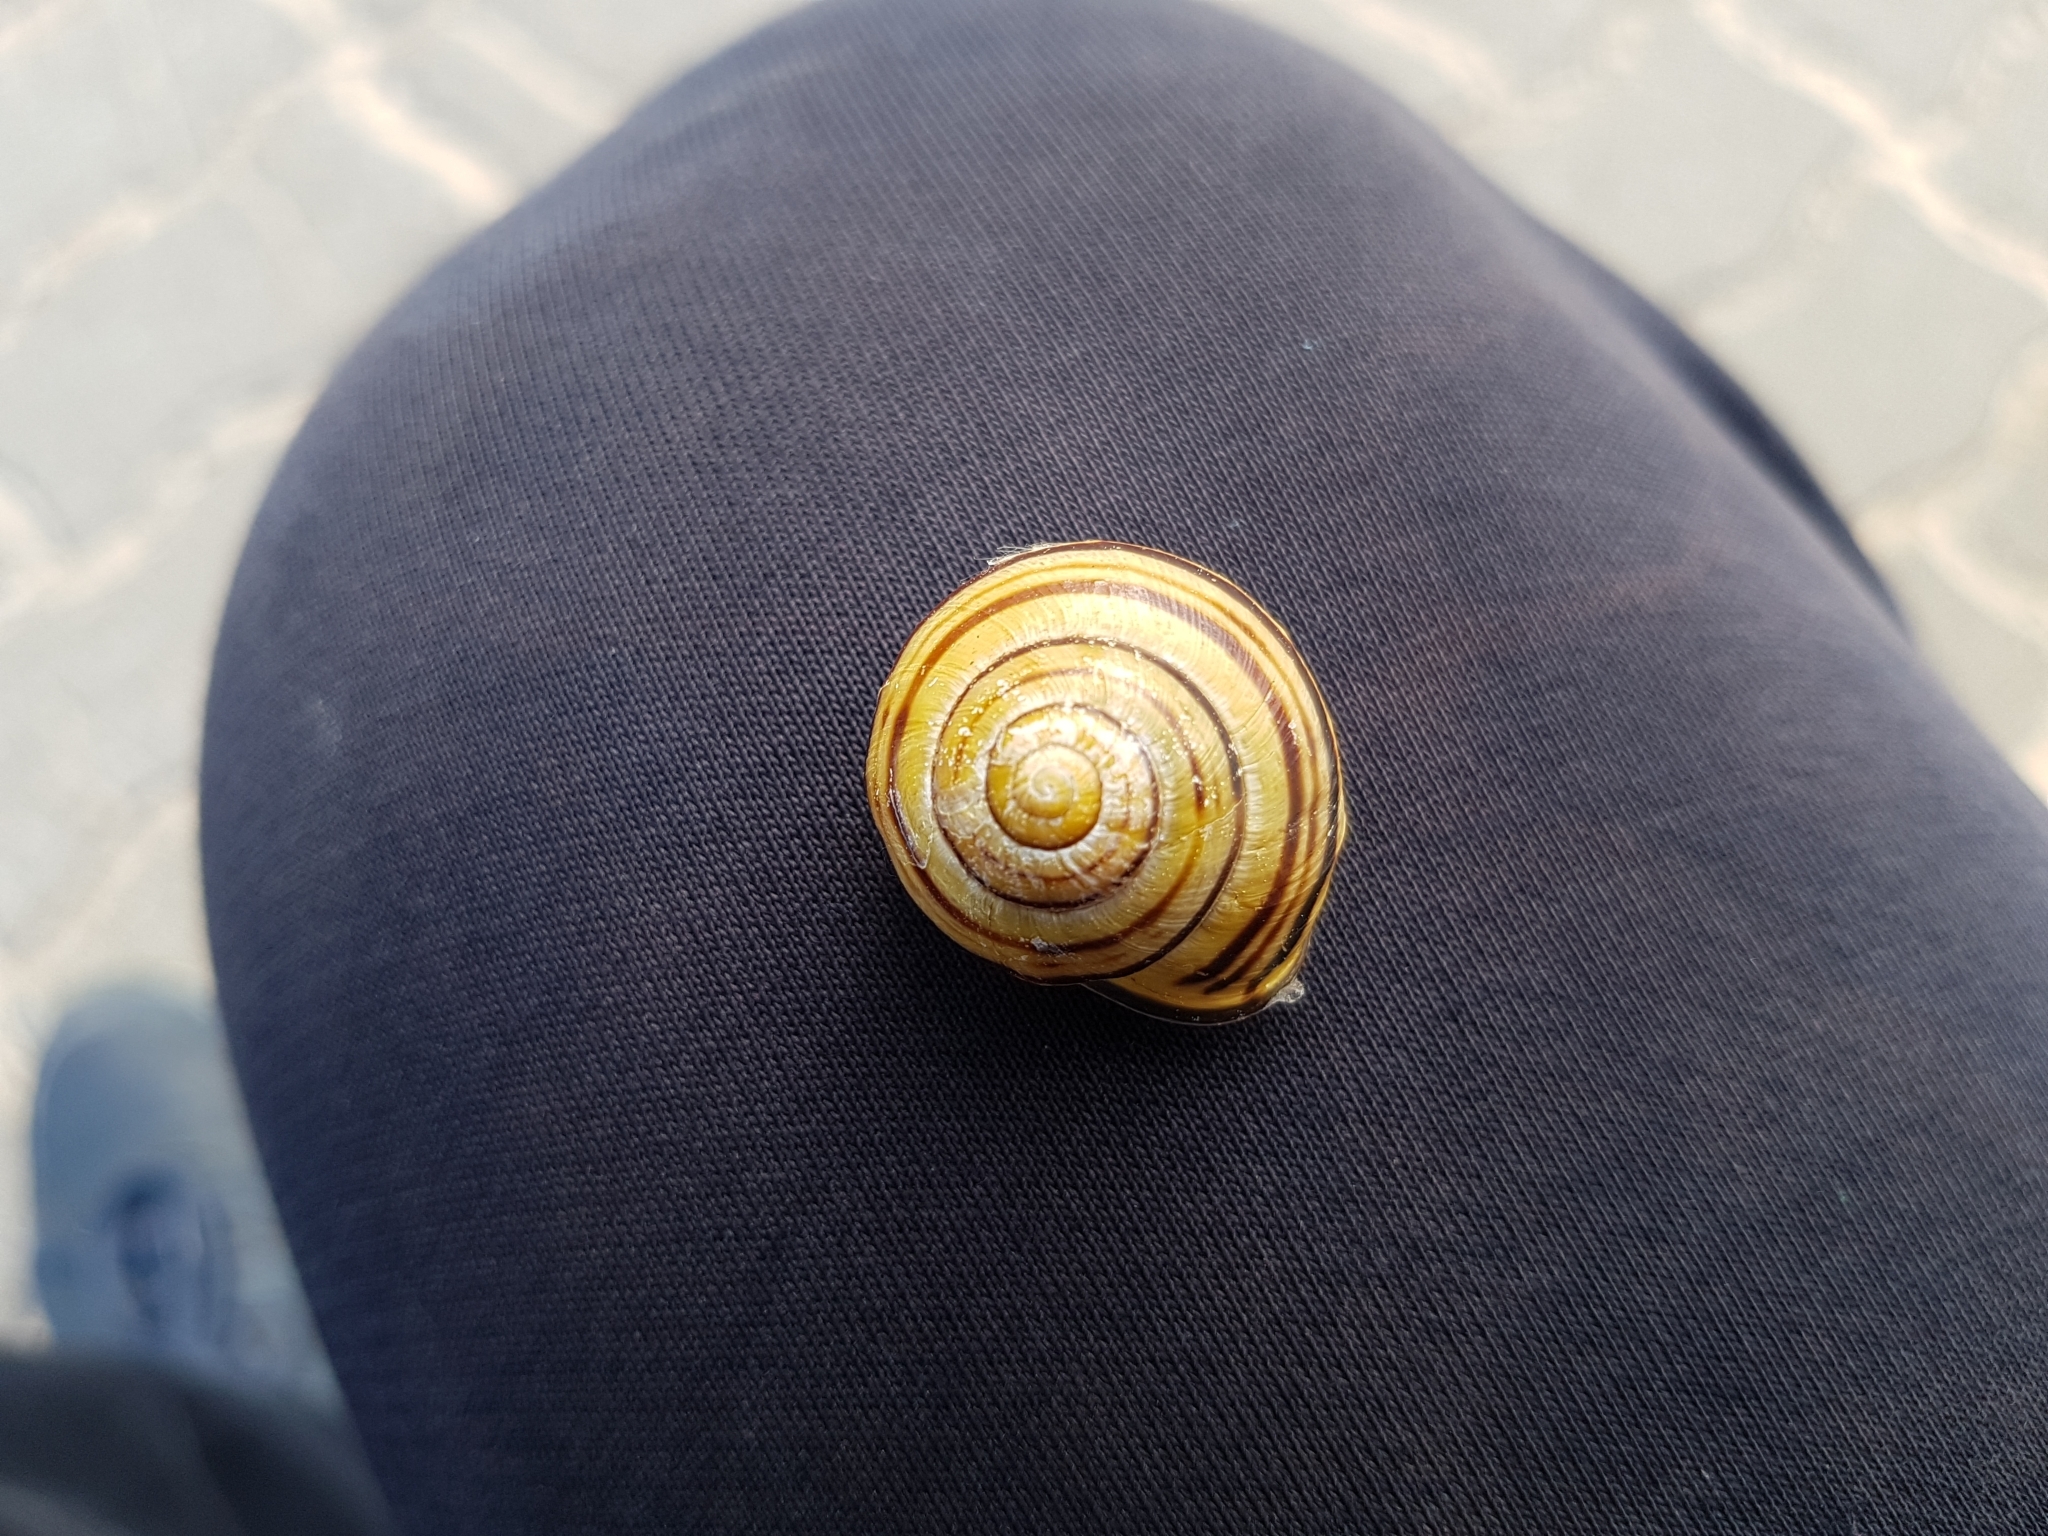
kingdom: Animalia
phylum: Mollusca
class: Gastropoda
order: Stylommatophora
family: Helicidae
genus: Cepaea
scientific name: Cepaea nemoralis
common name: Grovesnail
